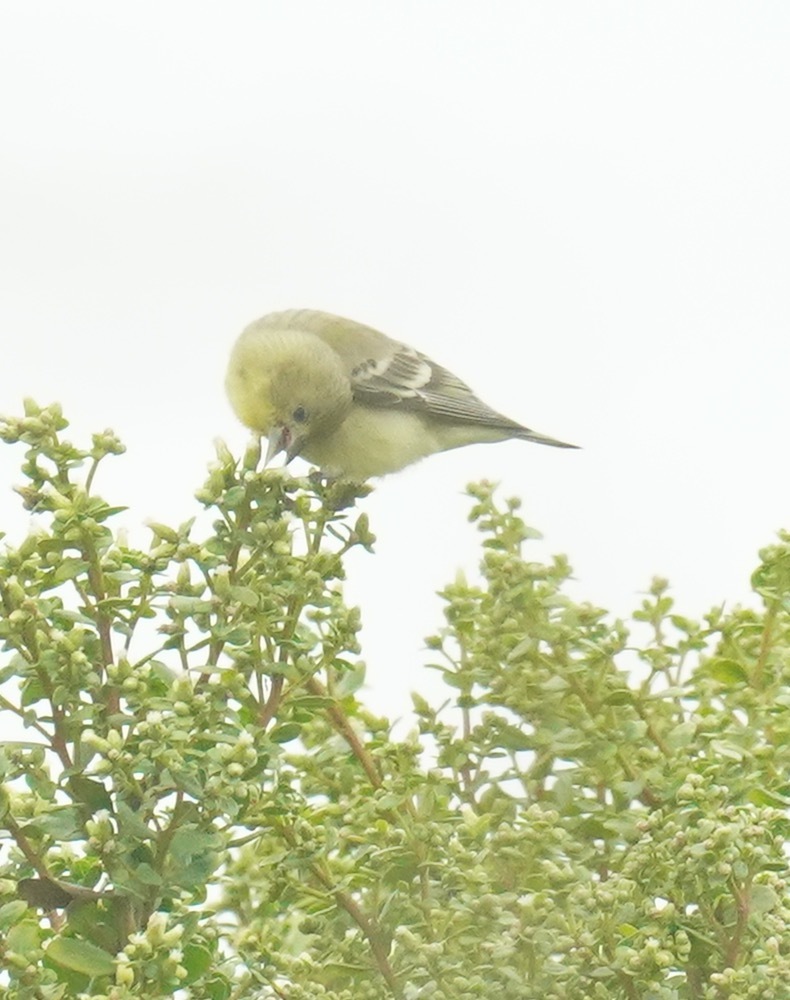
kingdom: Animalia
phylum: Chordata
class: Aves
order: Passeriformes
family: Fringillidae
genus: Spinus
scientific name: Spinus psaltria
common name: Lesser goldfinch
